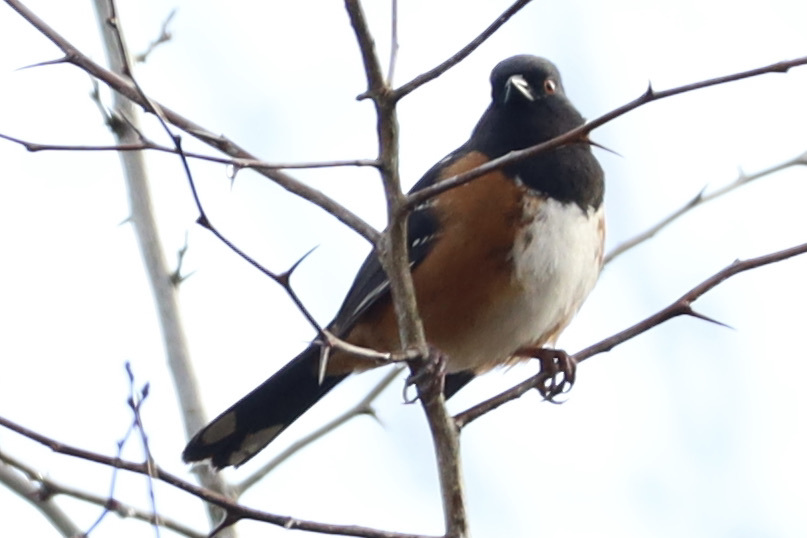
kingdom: Animalia
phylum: Chordata
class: Aves
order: Passeriformes
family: Passerellidae
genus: Pipilo
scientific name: Pipilo maculatus
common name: Spotted towhee
